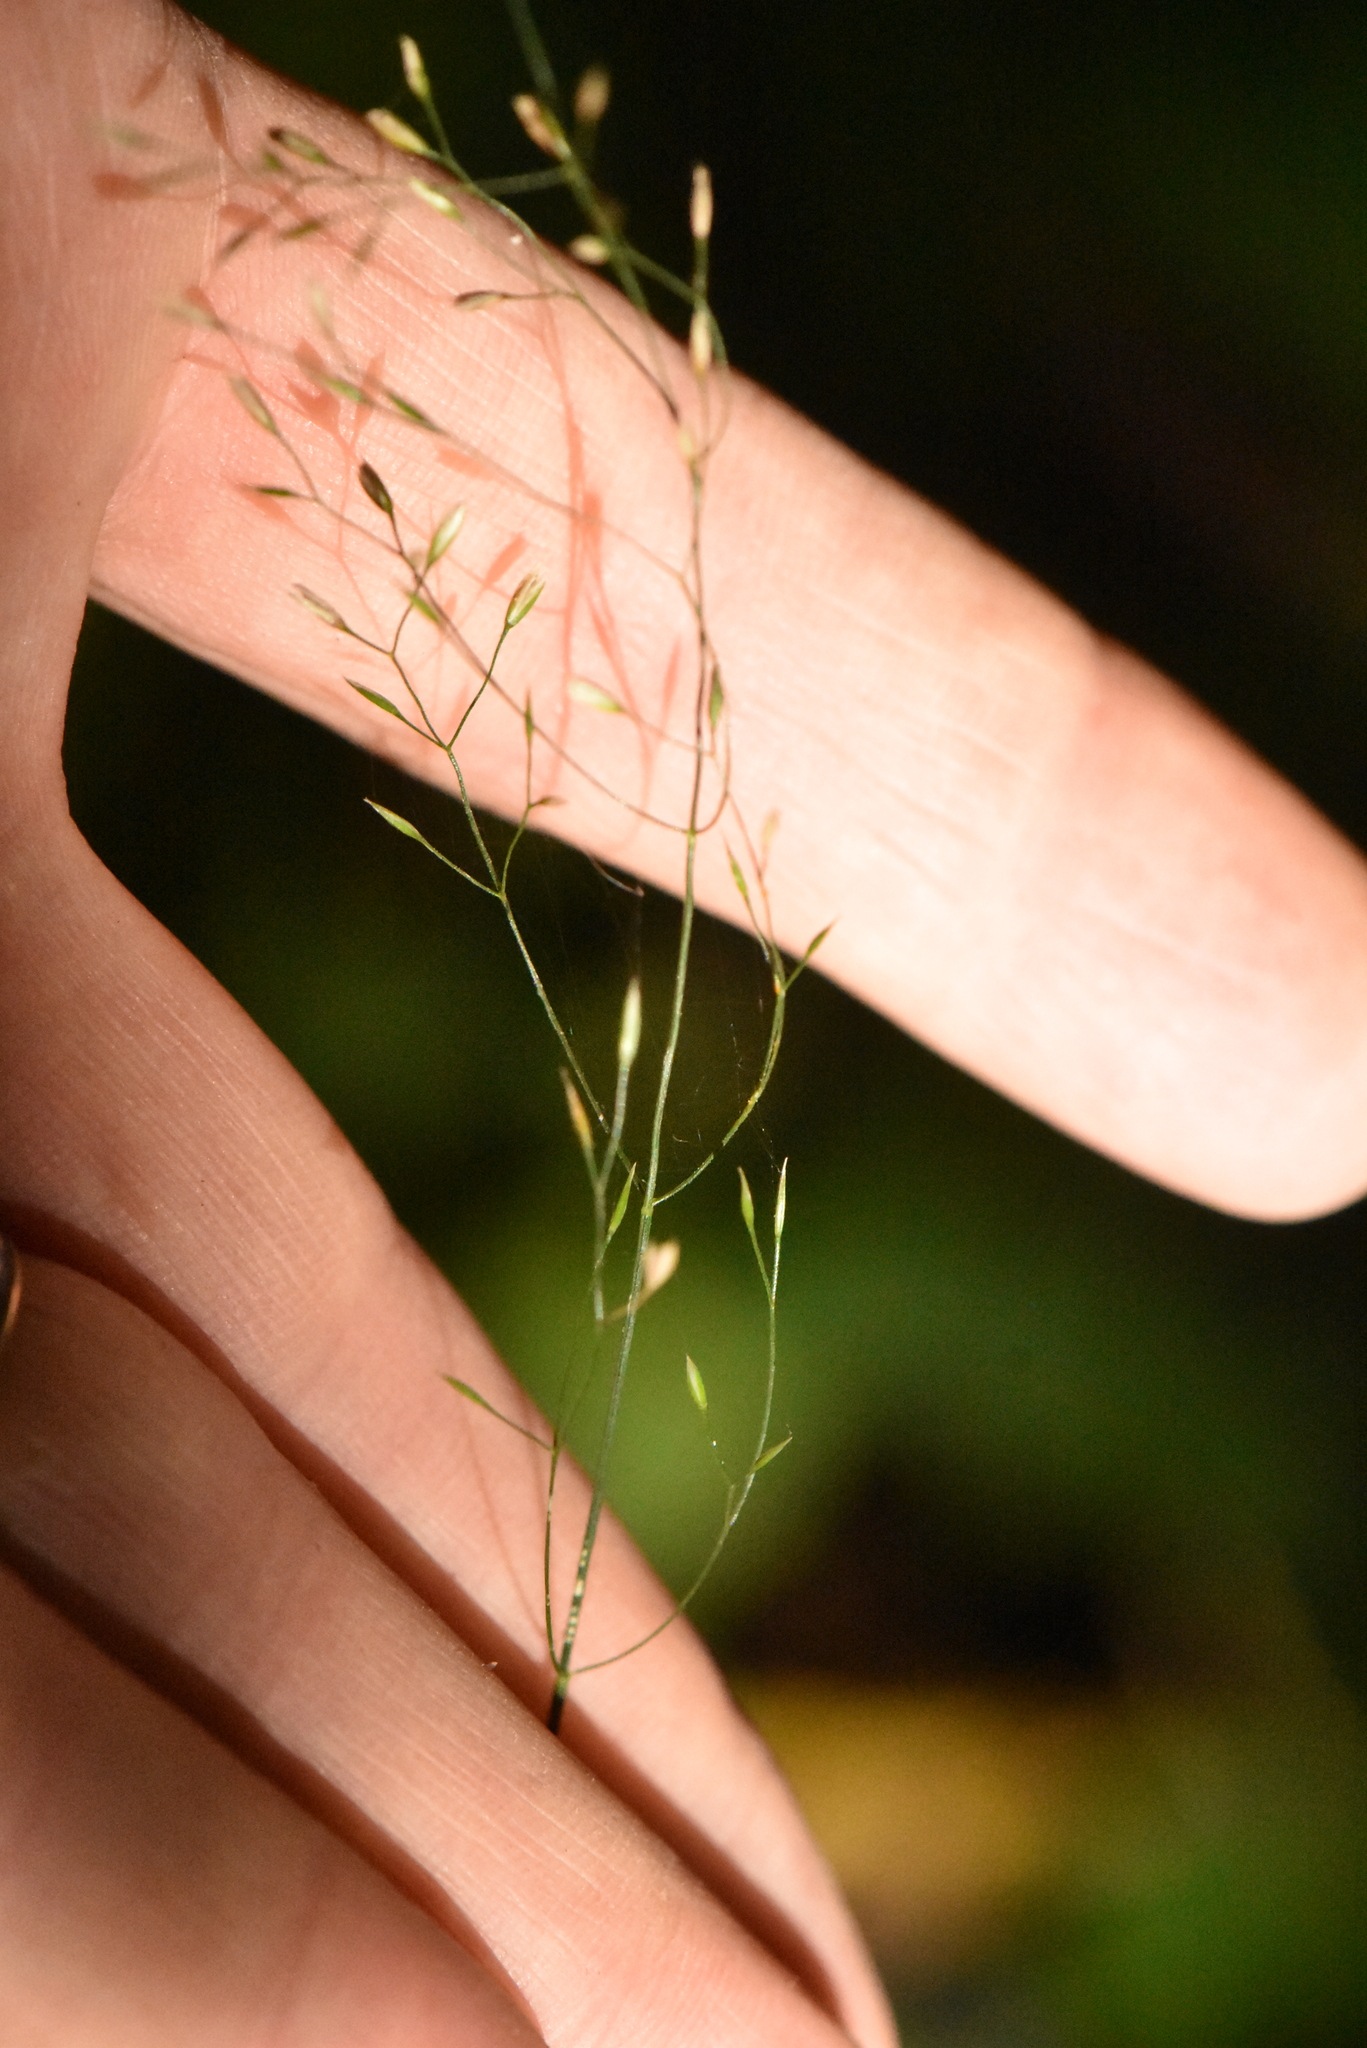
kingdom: Plantae
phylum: Tracheophyta
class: Liliopsida
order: Poales
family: Poaceae
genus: Poa
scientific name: Poa nemoralis
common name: Wood bluegrass
